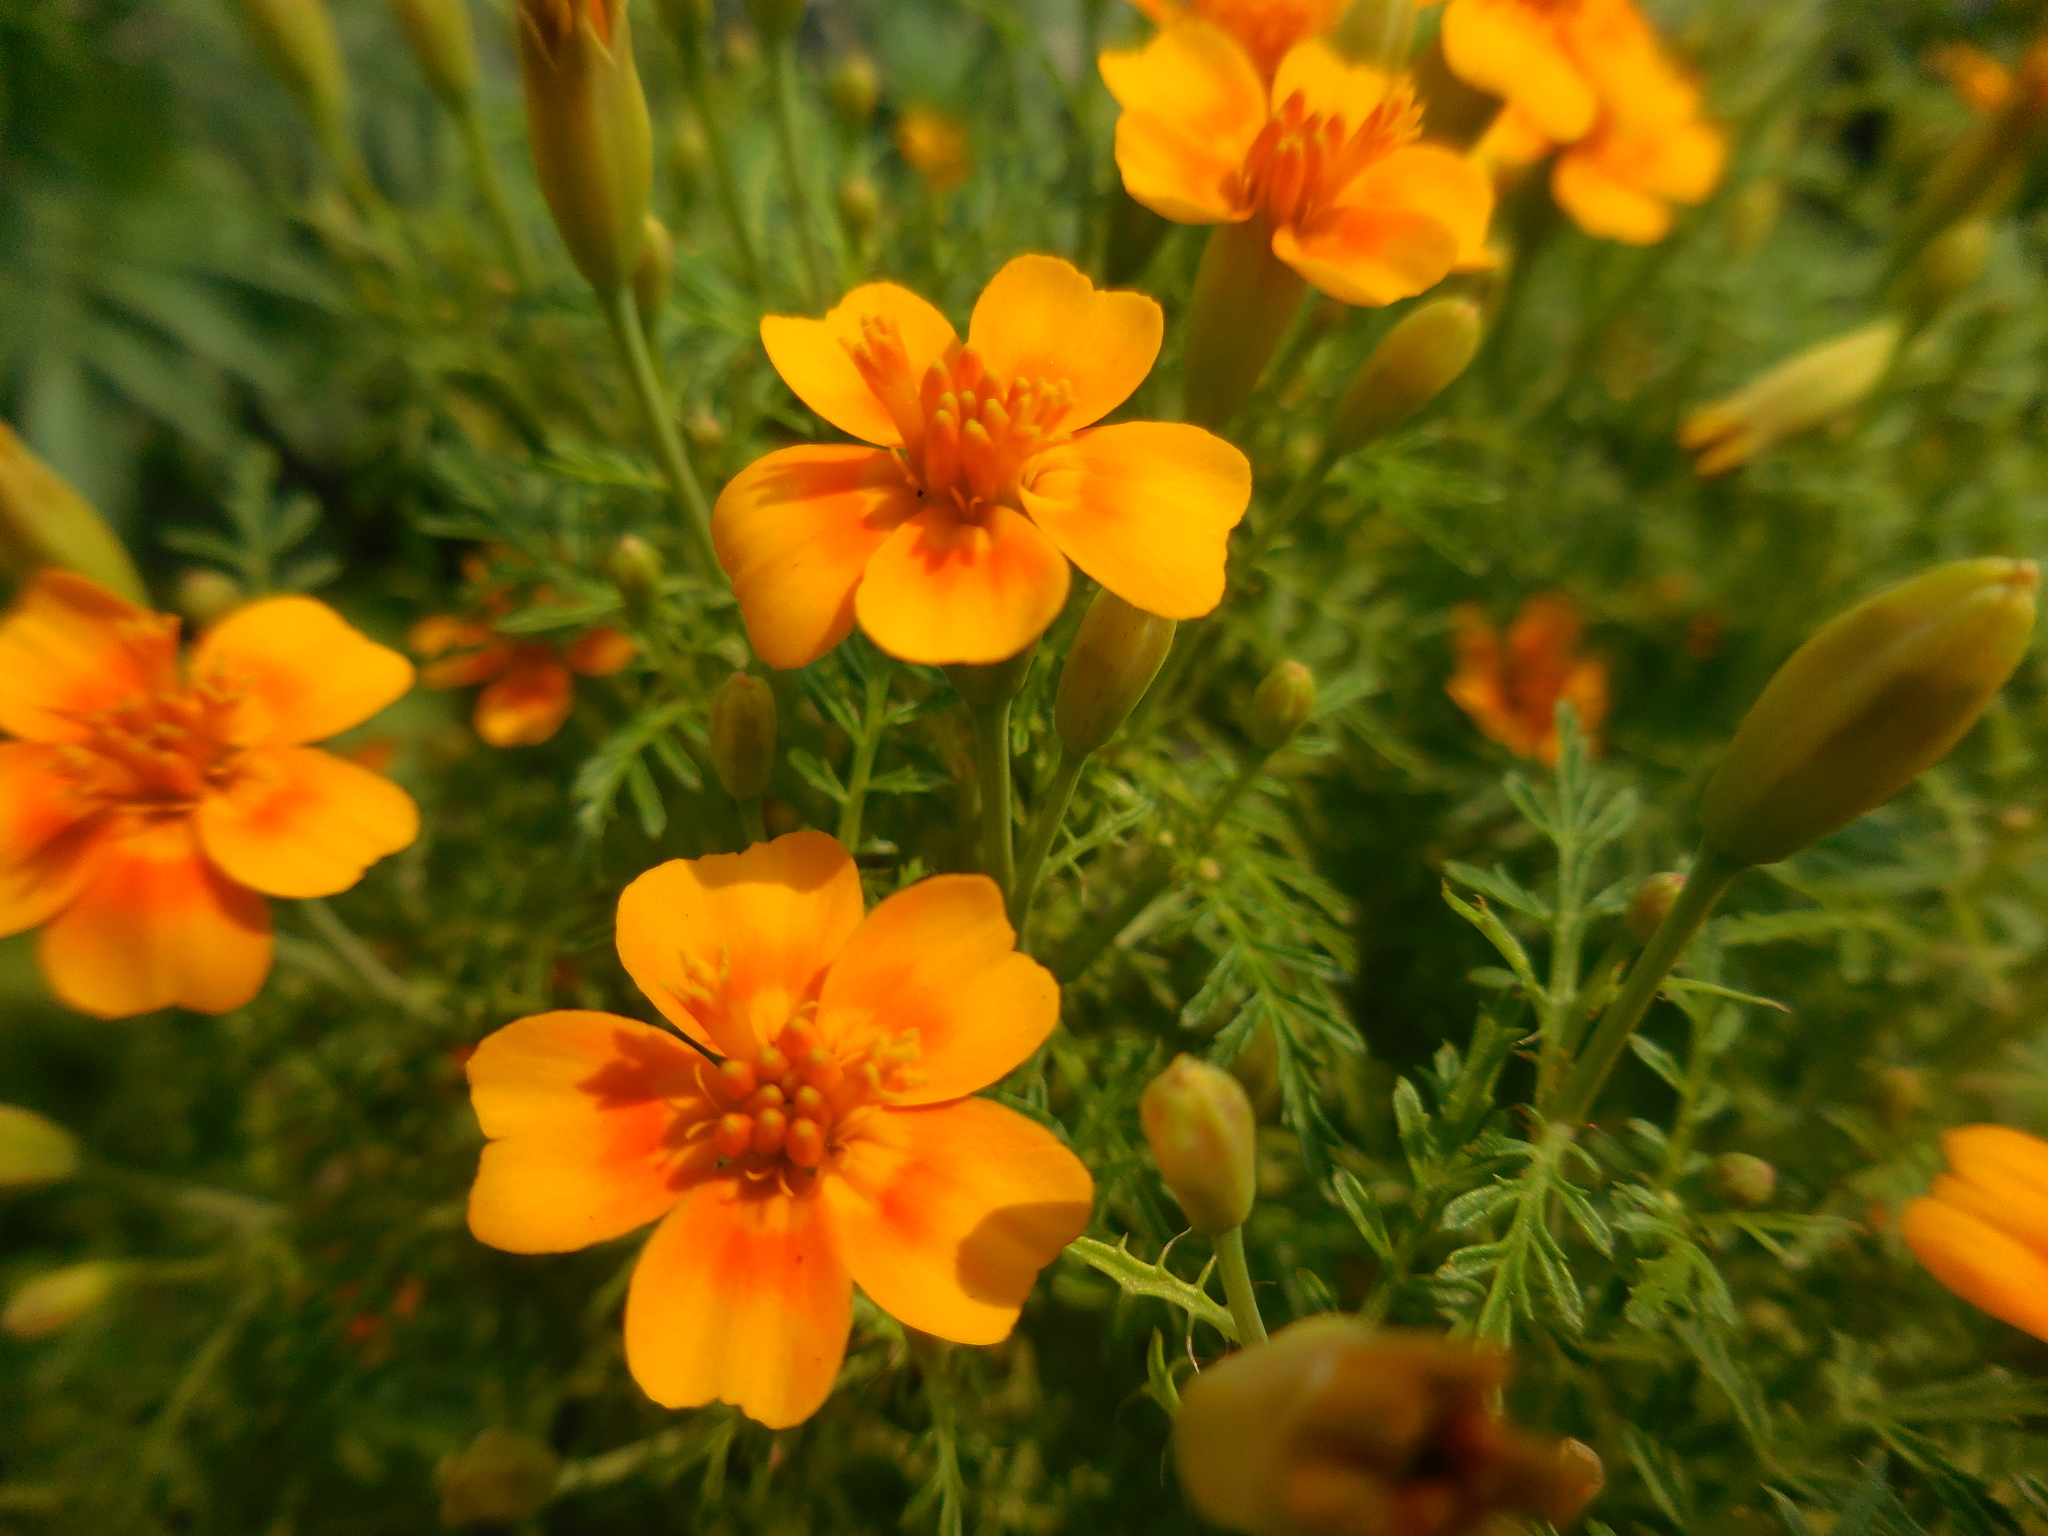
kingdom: Plantae
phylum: Tracheophyta
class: Magnoliopsida
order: Asterales
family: Asteraceae
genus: Tagetes
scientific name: Tagetes lunulata
